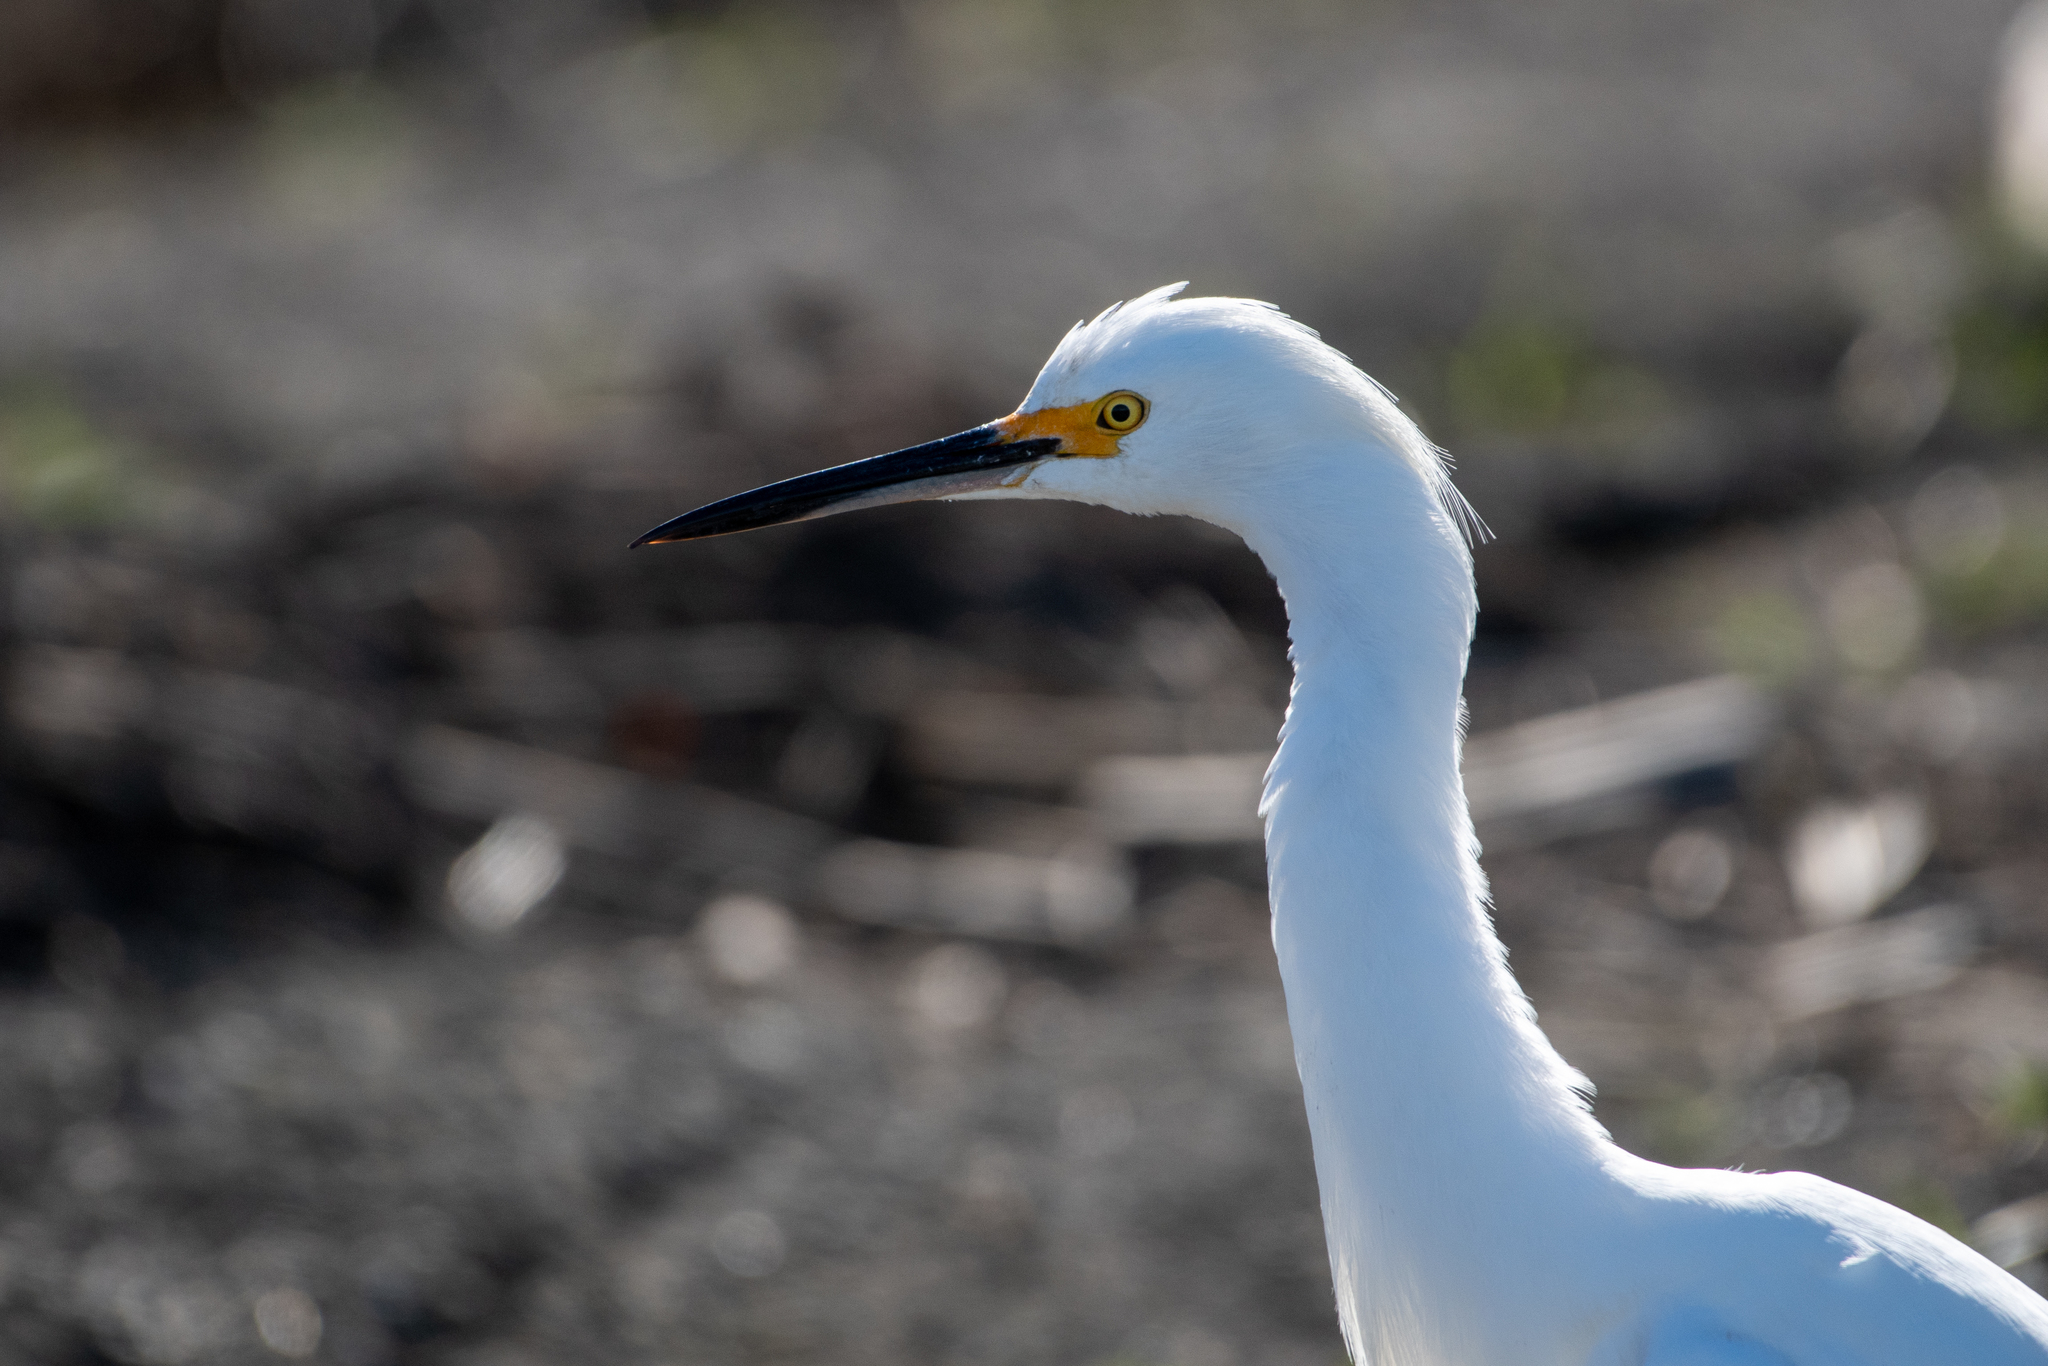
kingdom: Animalia
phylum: Chordata
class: Aves
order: Pelecaniformes
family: Ardeidae
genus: Egretta
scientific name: Egretta thula
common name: Snowy egret
